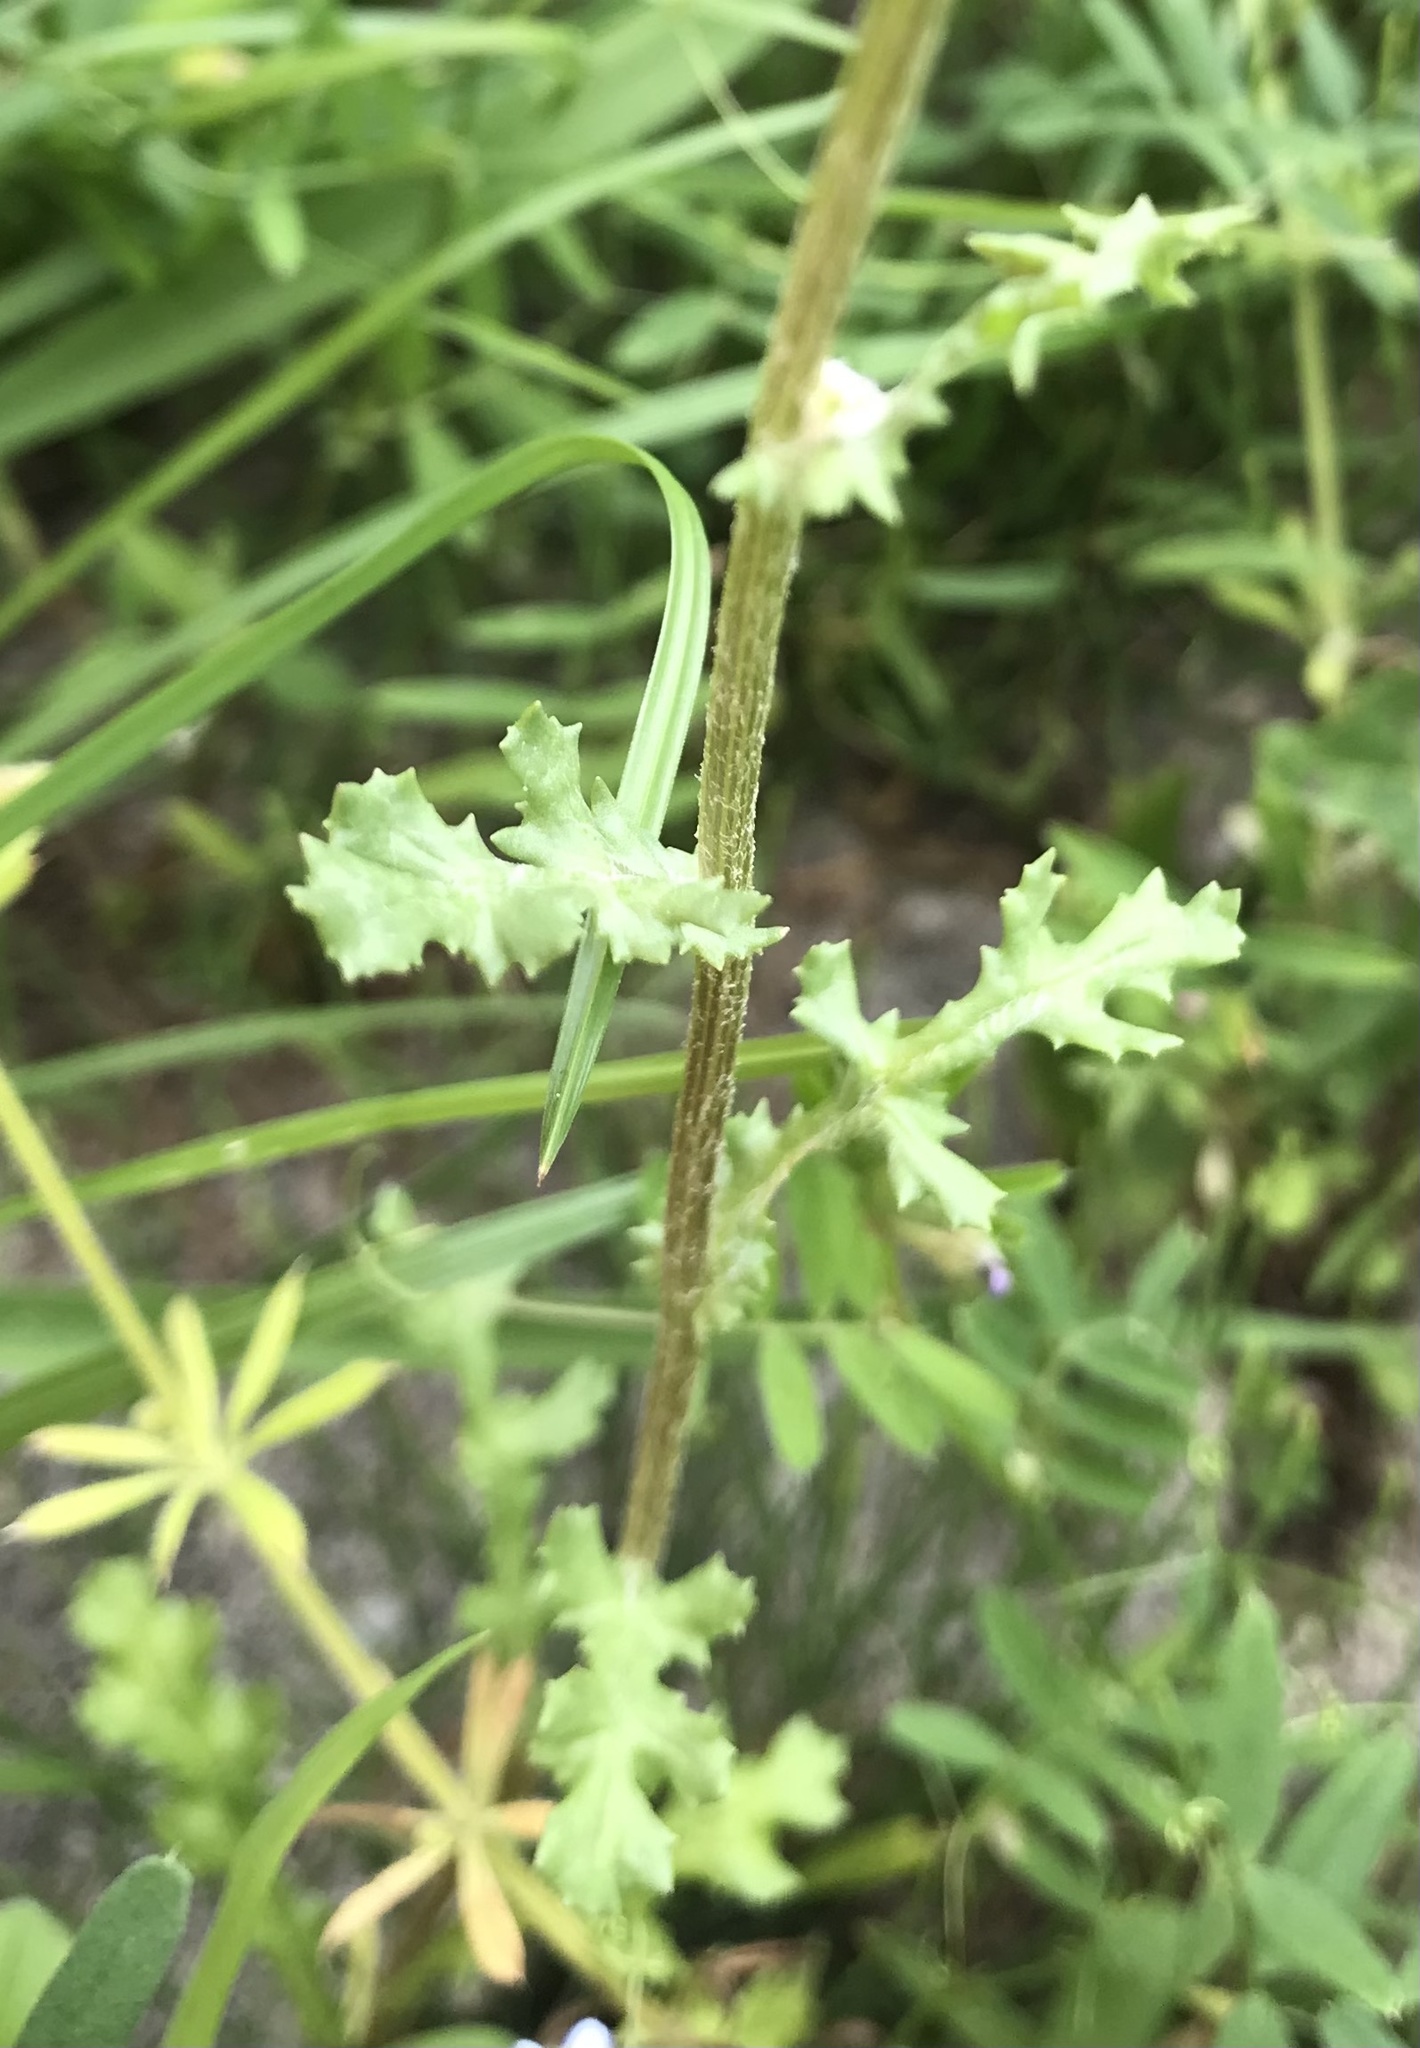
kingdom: Plantae
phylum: Tracheophyta
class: Magnoliopsida
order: Asterales
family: Asteraceae
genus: Senecio
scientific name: Senecio vulgaris
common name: Old-man-in-the-spring
